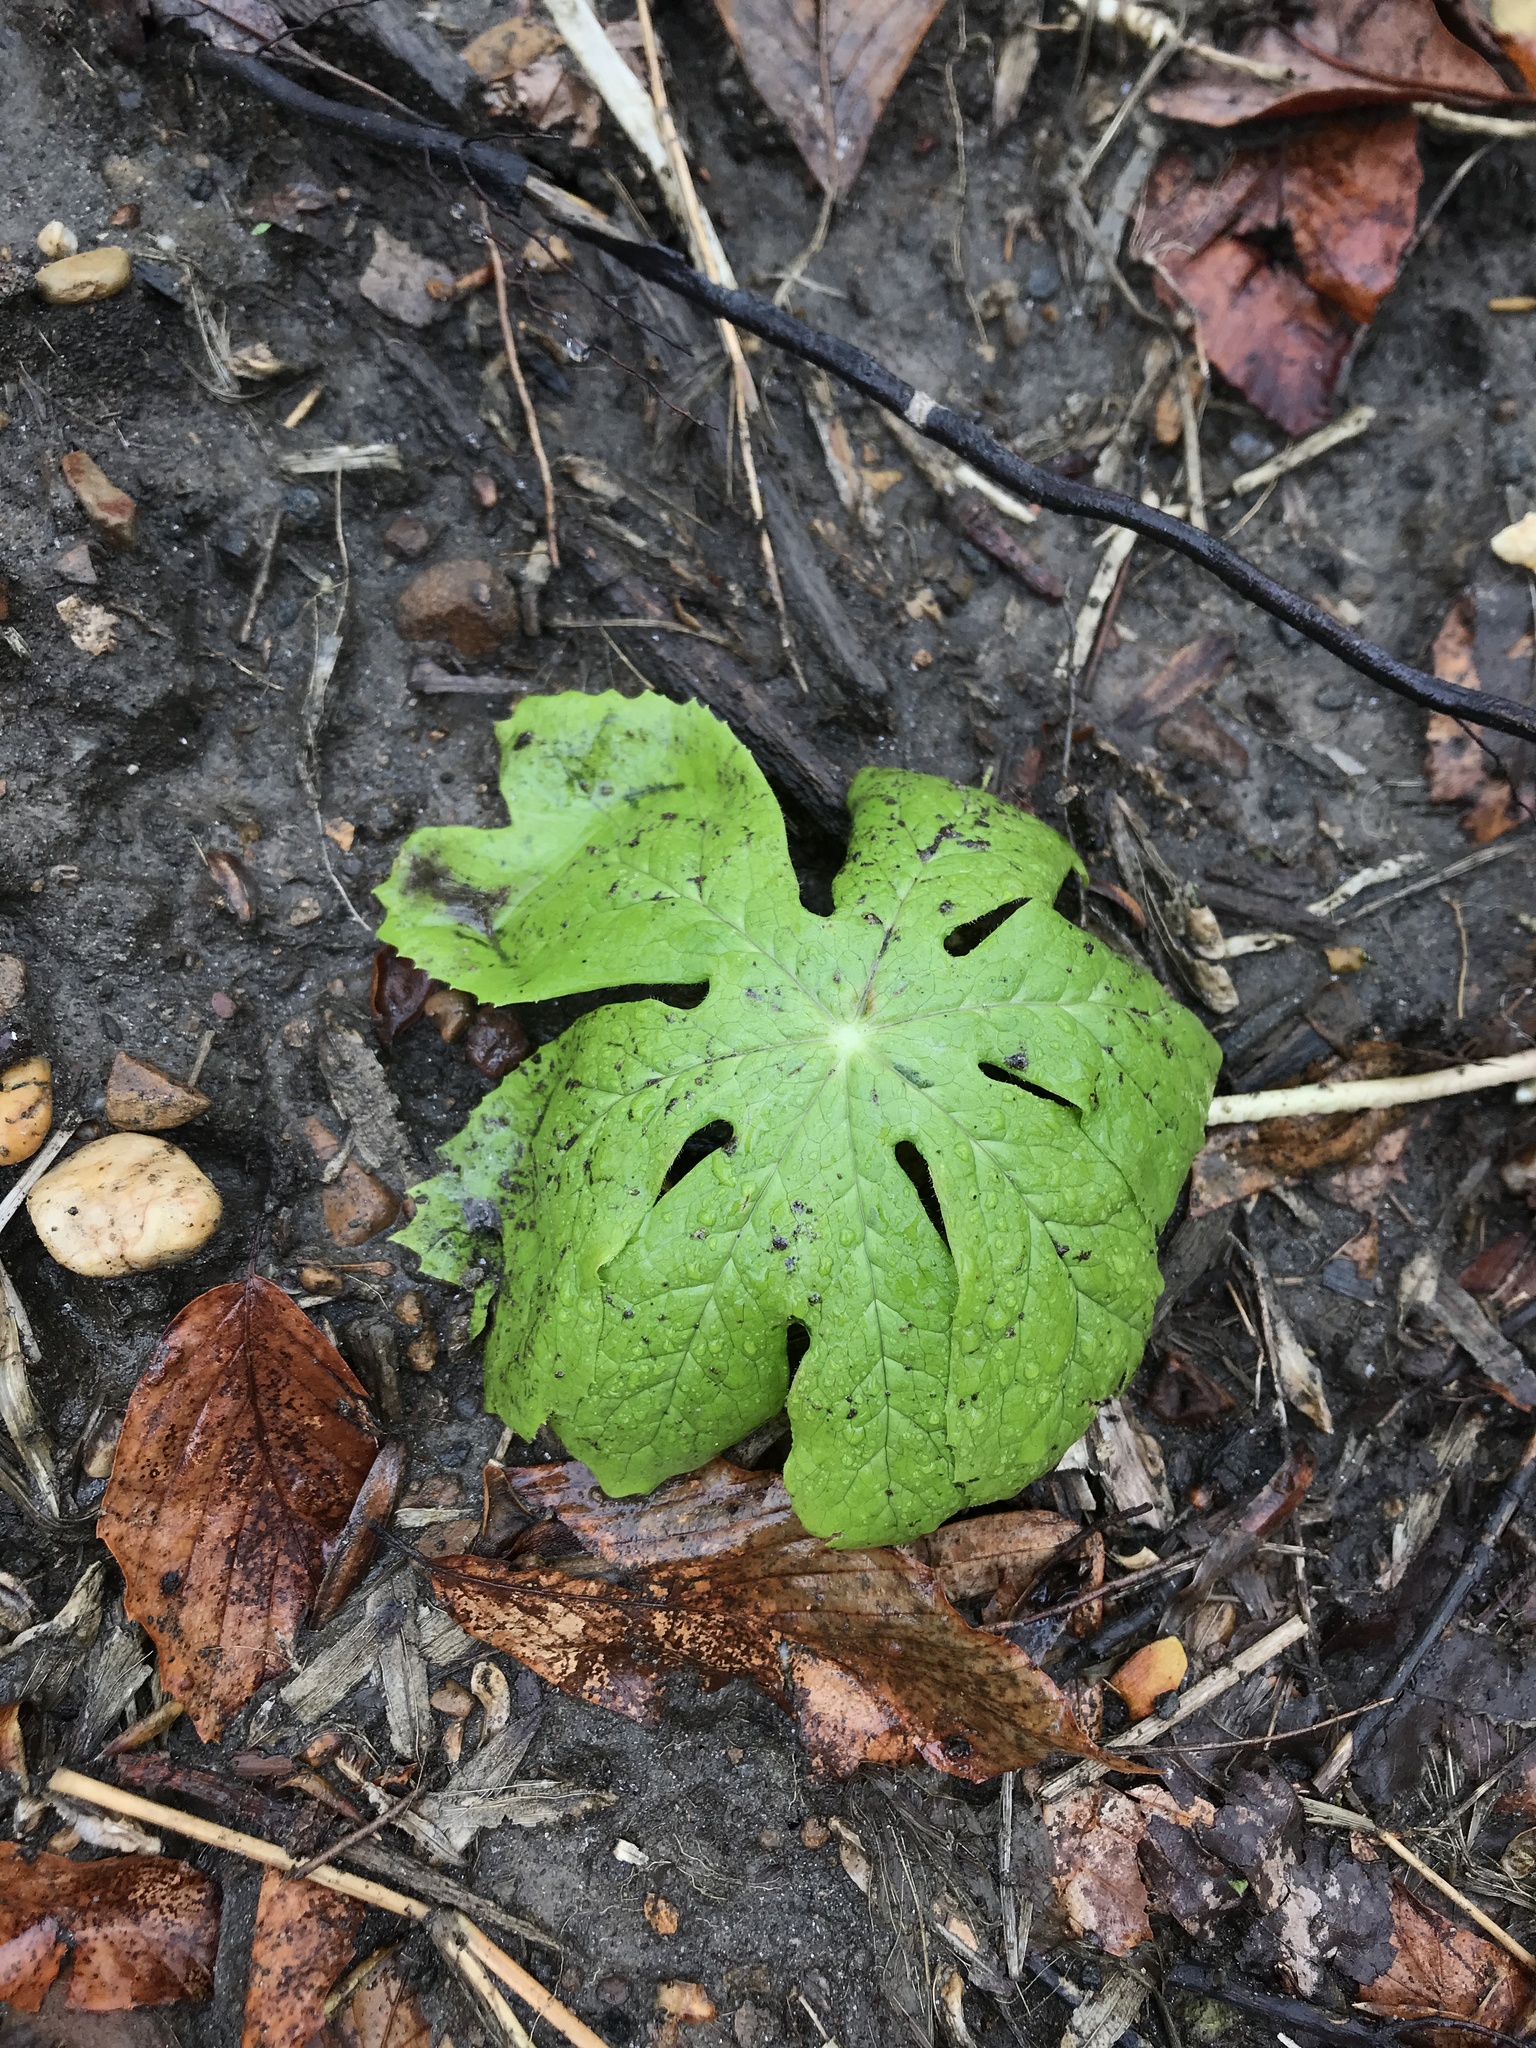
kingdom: Plantae
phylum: Tracheophyta
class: Magnoliopsida
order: Ranunculales
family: Berberidaceae
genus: Podophyllum
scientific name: Podophyllum peltatum
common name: Wild mandrake
